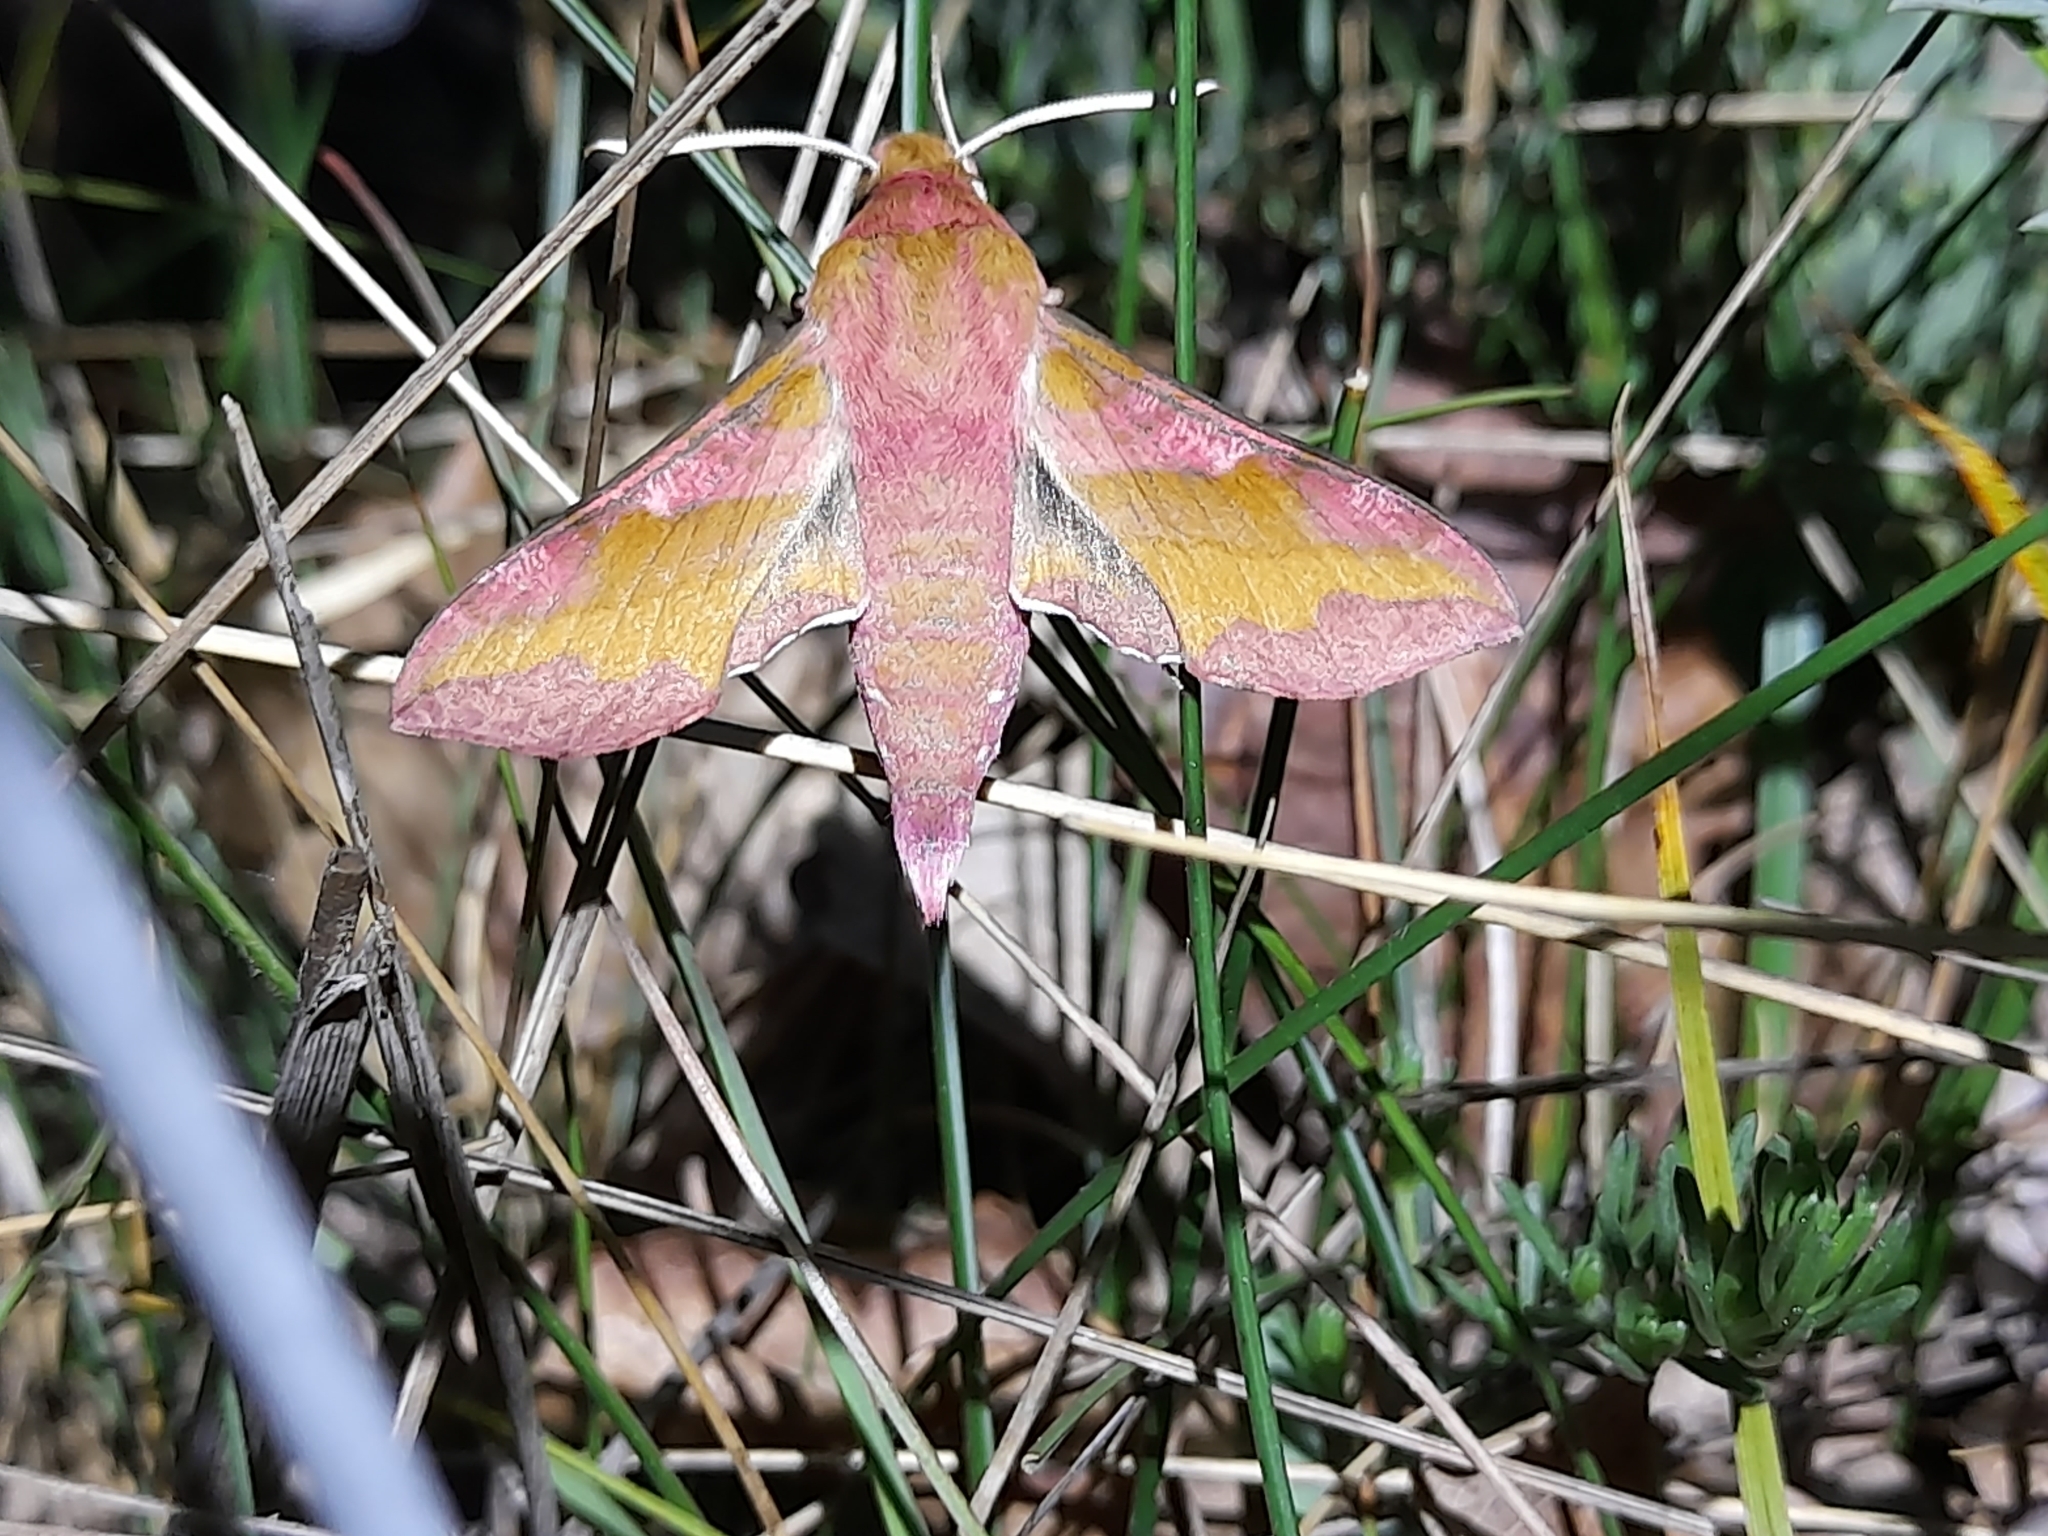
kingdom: Animalia
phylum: Arthropoda
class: Insecta
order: Lepidoptera
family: Sphingidae
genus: Deilephila
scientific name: Deilephila porcellus
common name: Small elephant hawk-moth
